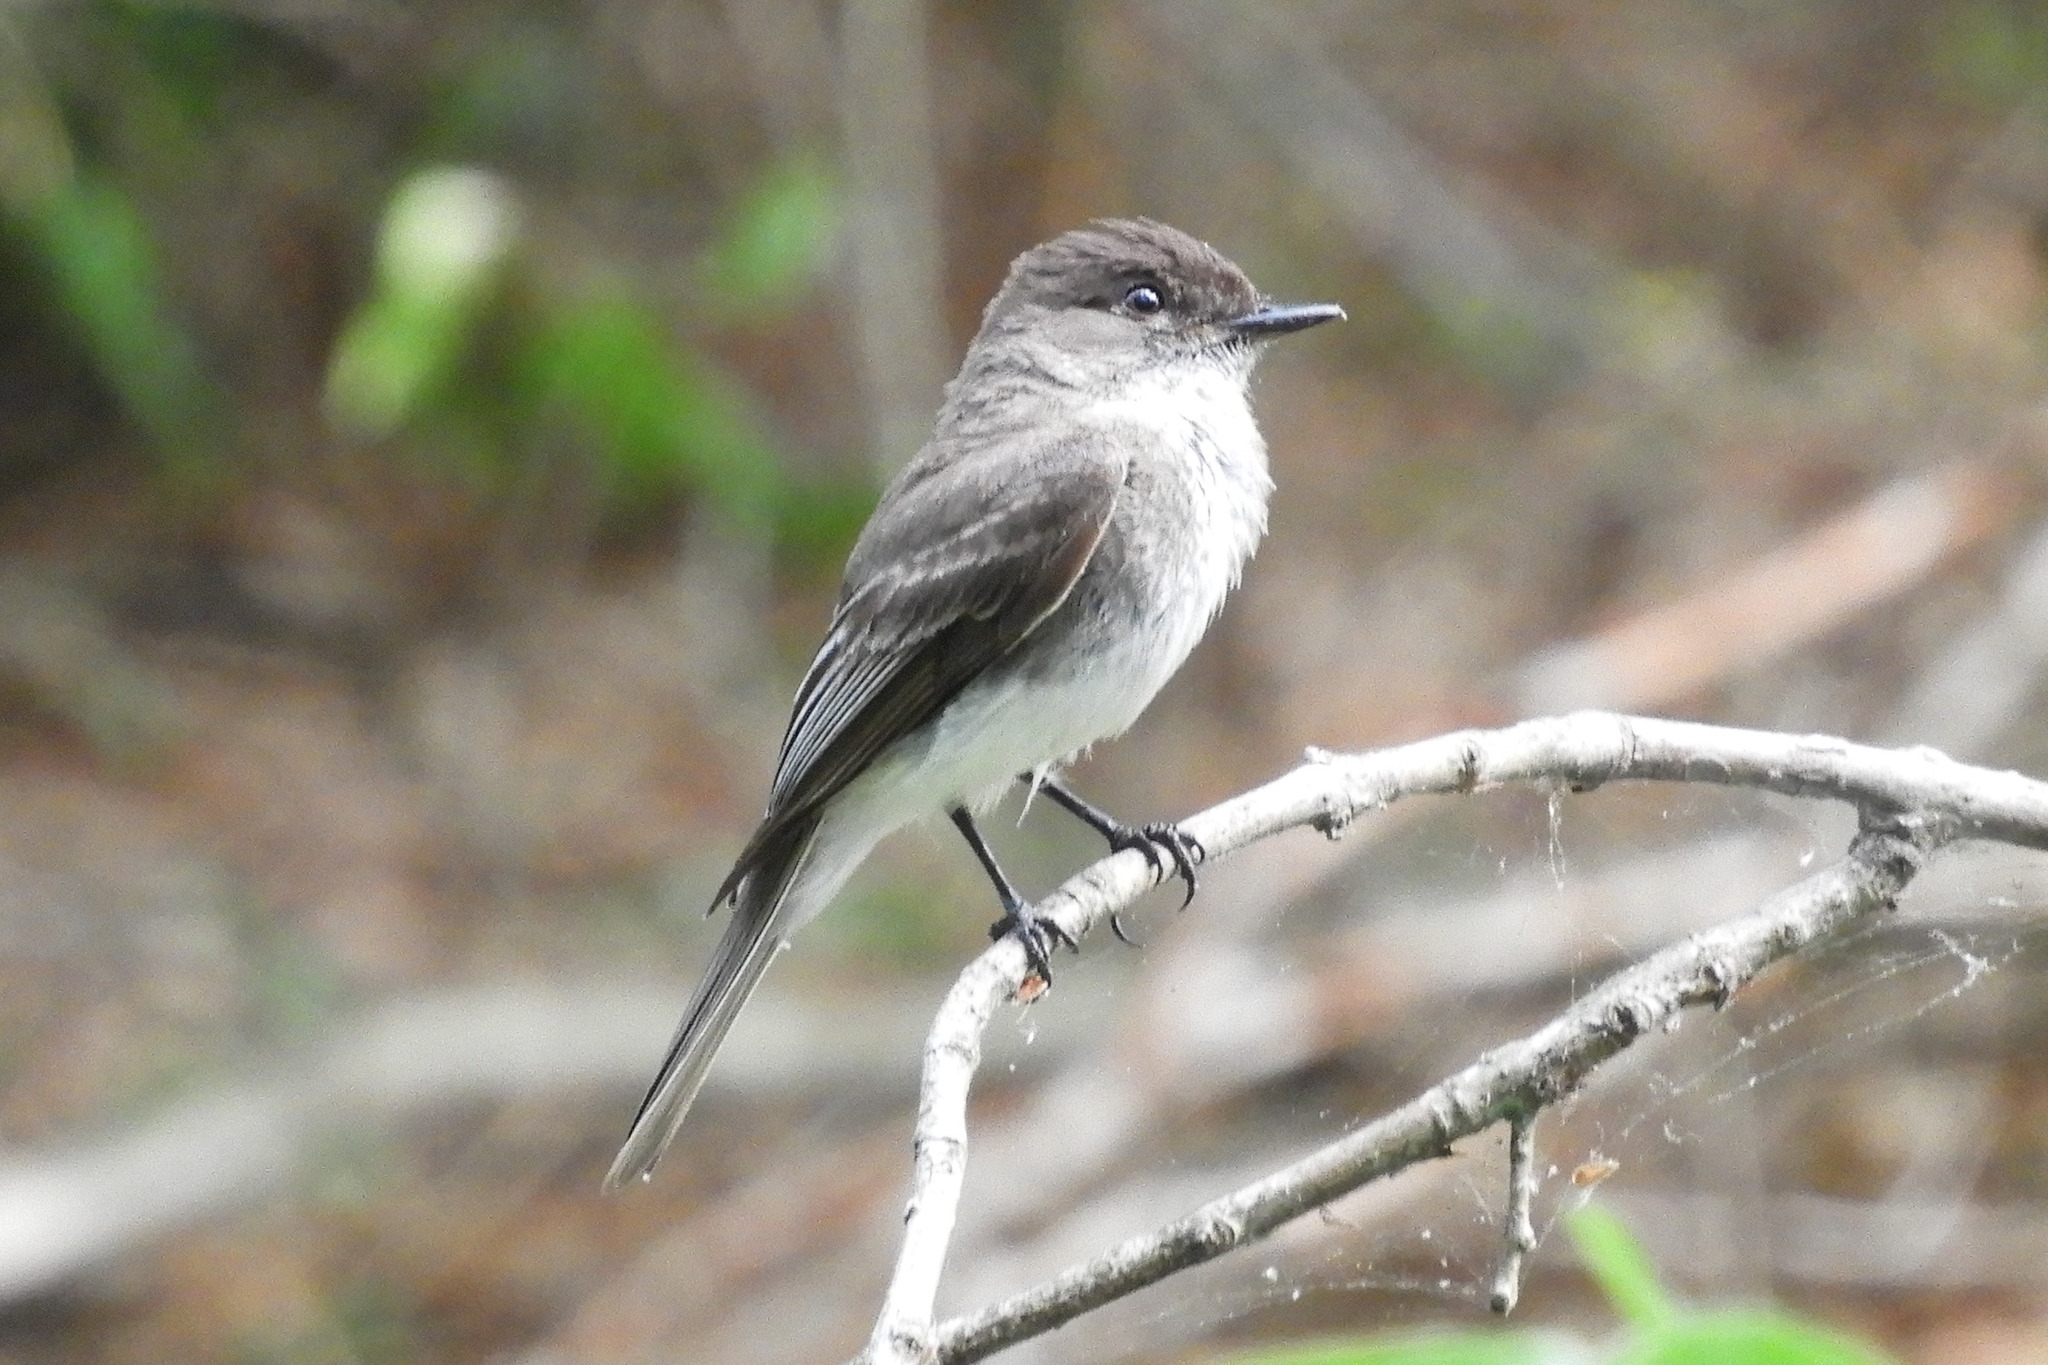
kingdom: Animalia
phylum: Chordata
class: Aves
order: Passeriformes
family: Tyrannidae
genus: Sayornis
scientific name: Sayornis phoebe
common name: Eastern phoebe
